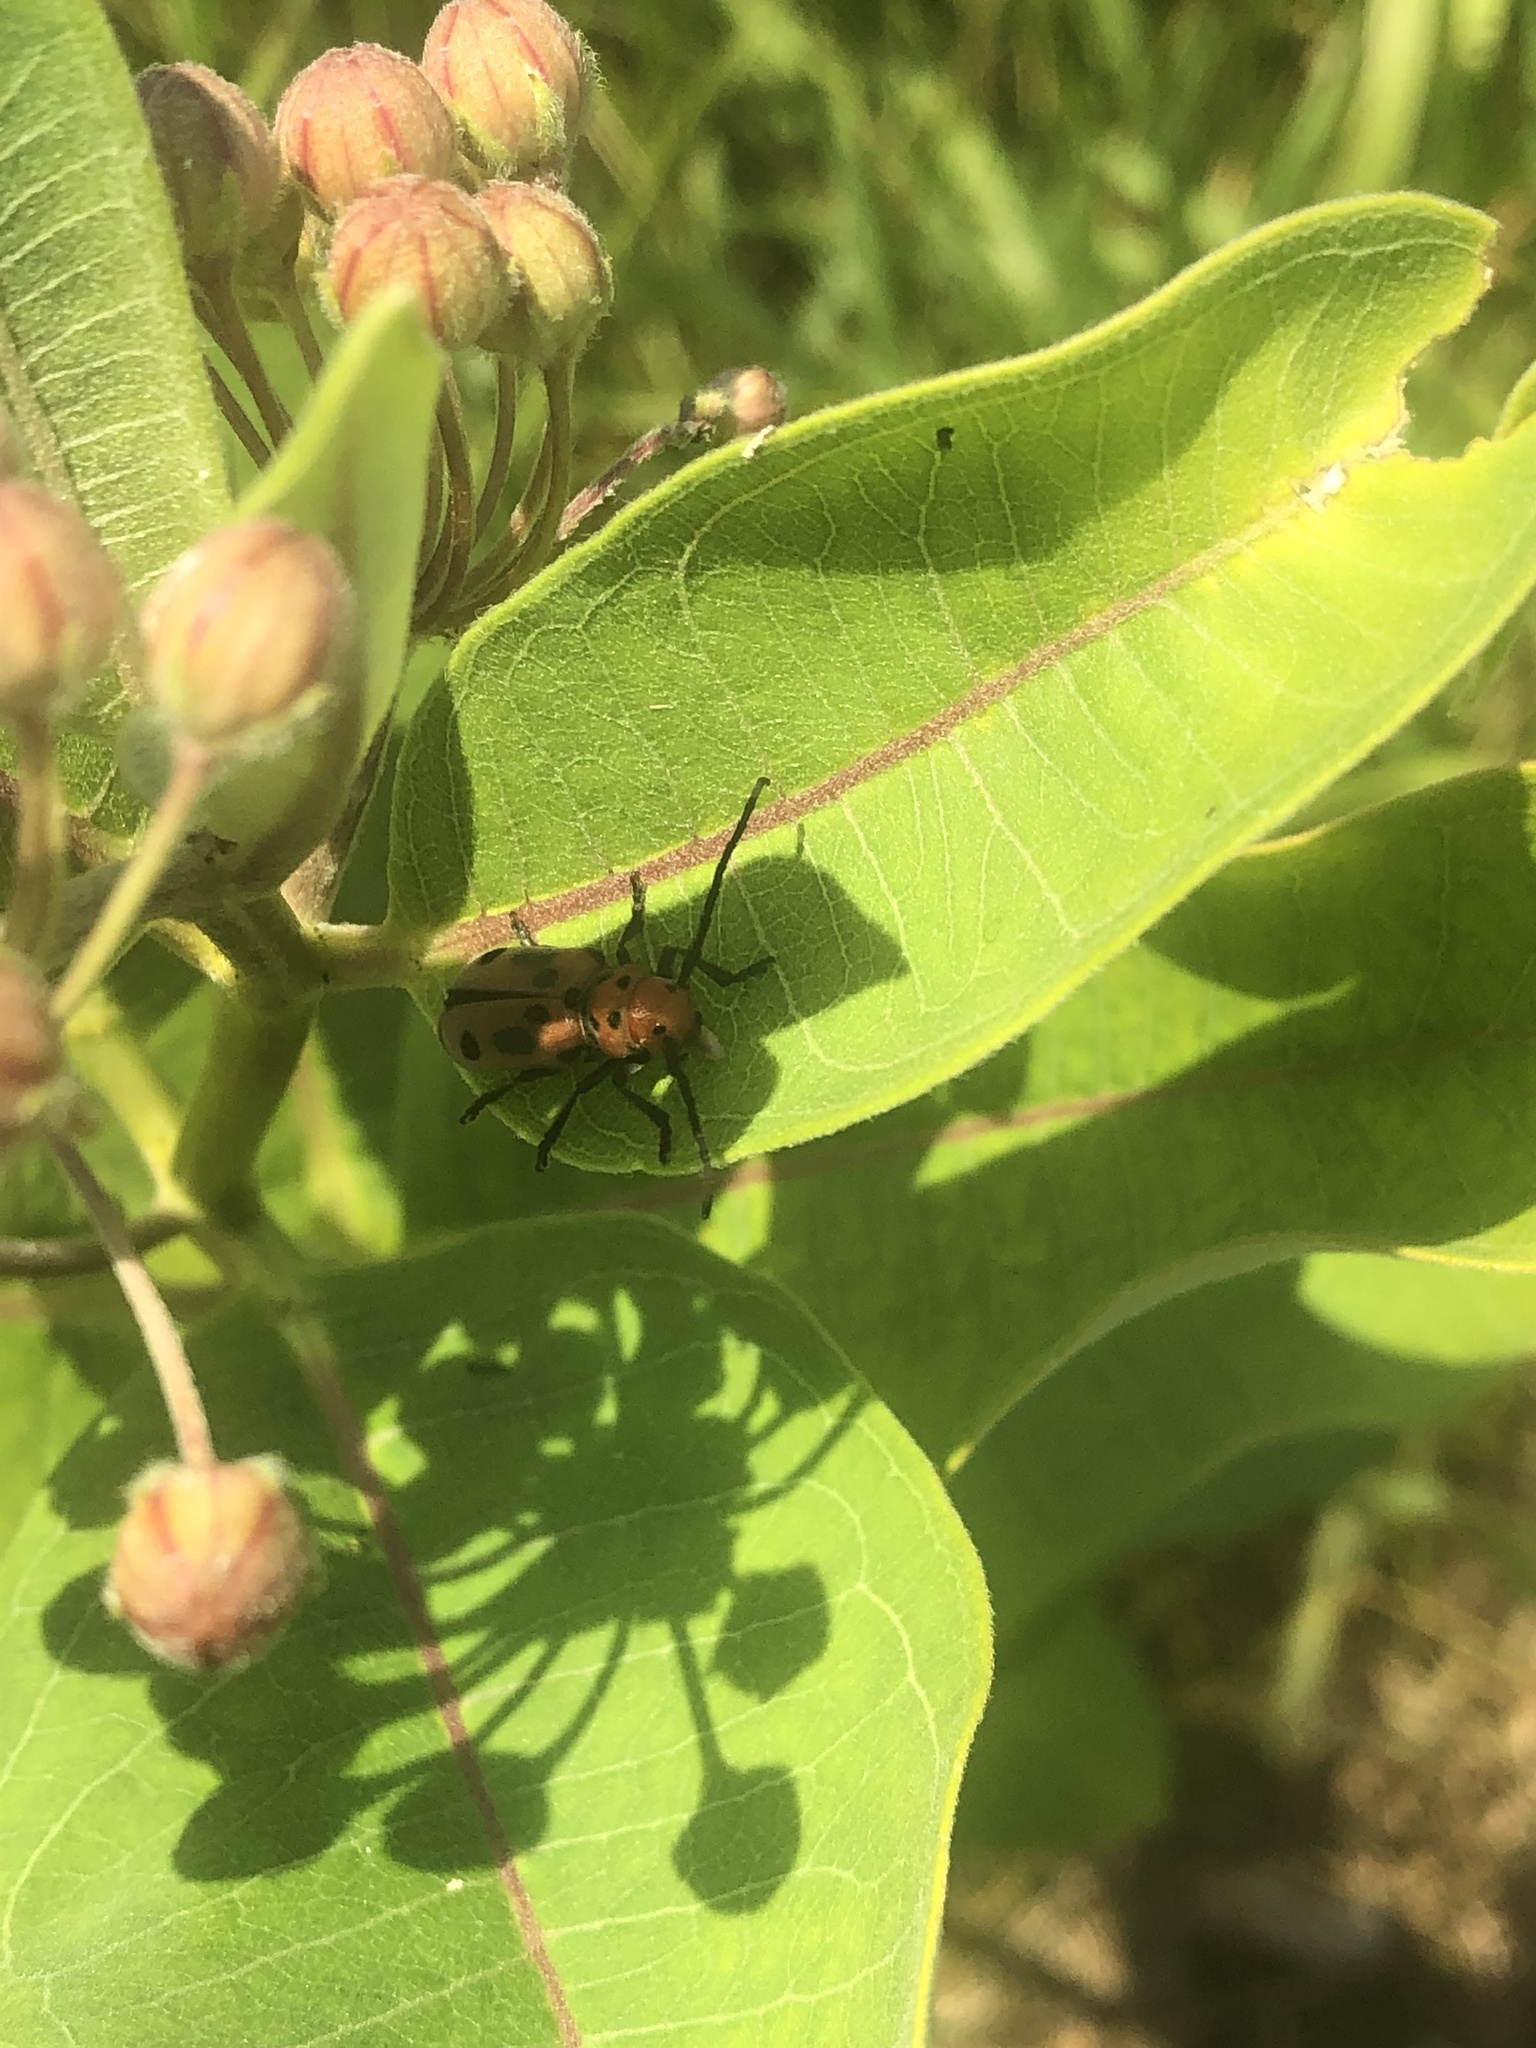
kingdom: Animalia
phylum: Arthropoda
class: Insecta
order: Coleoptera
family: Cerambycidae
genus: Tetraopes
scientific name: Tetraopes tetrophthalmus
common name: Red milkweed beetle
